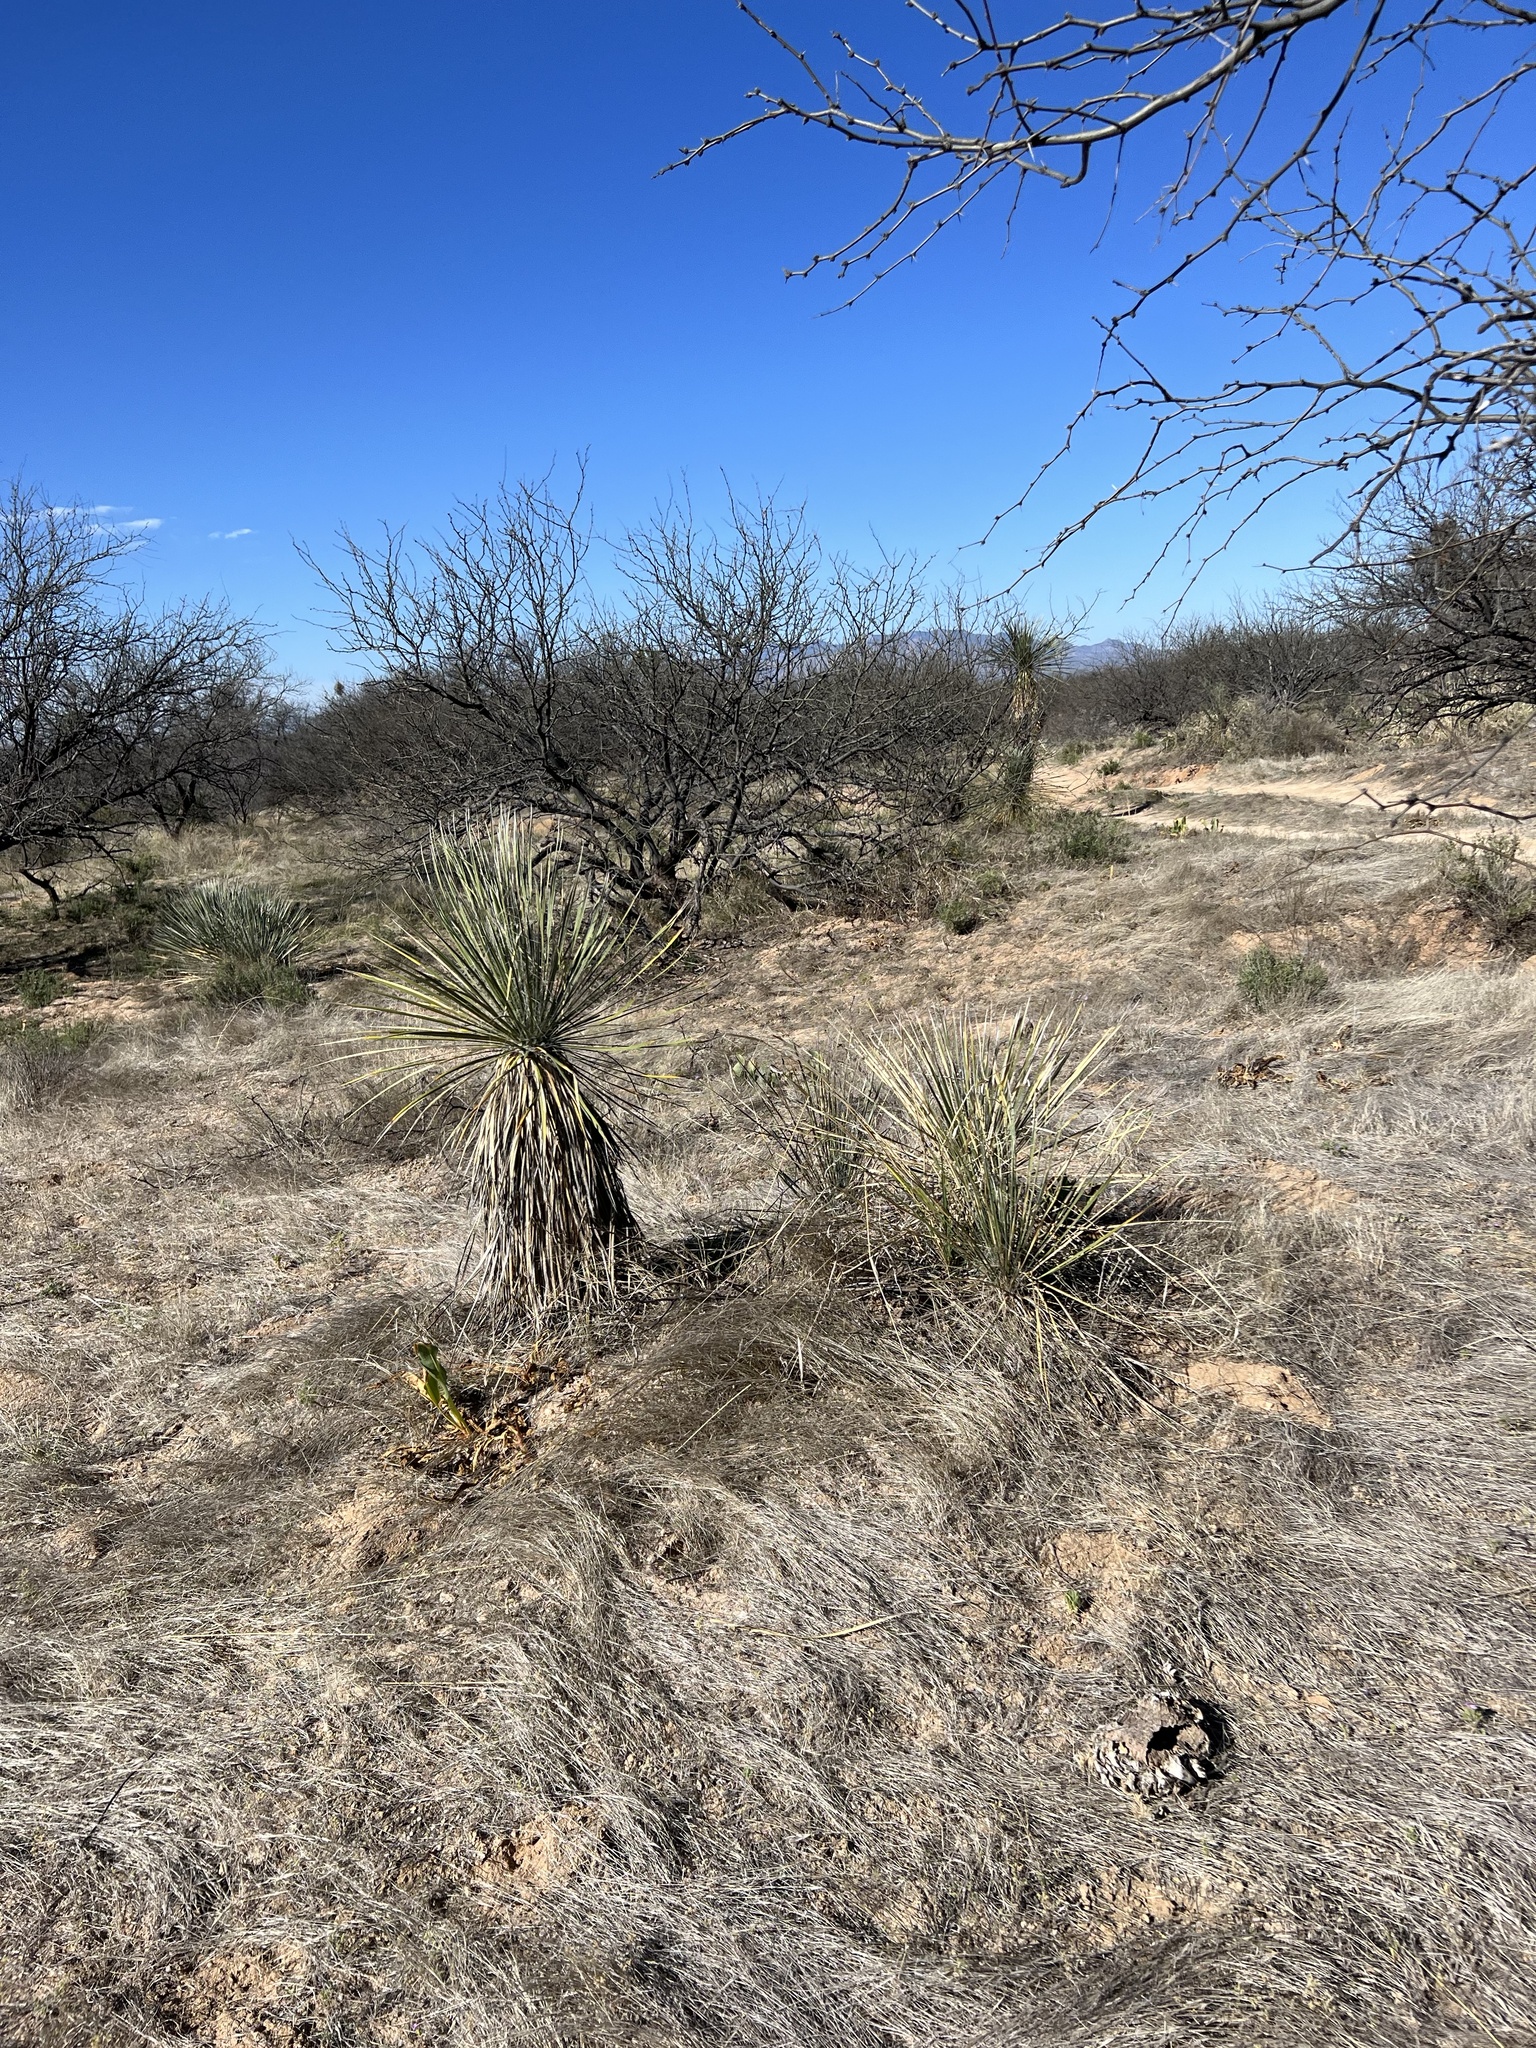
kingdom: Plantae
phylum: Tracheophyta
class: Liliopsida
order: Asparagales
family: Asparagaceae
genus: Yucca
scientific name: Yucca elata
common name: Palmella
